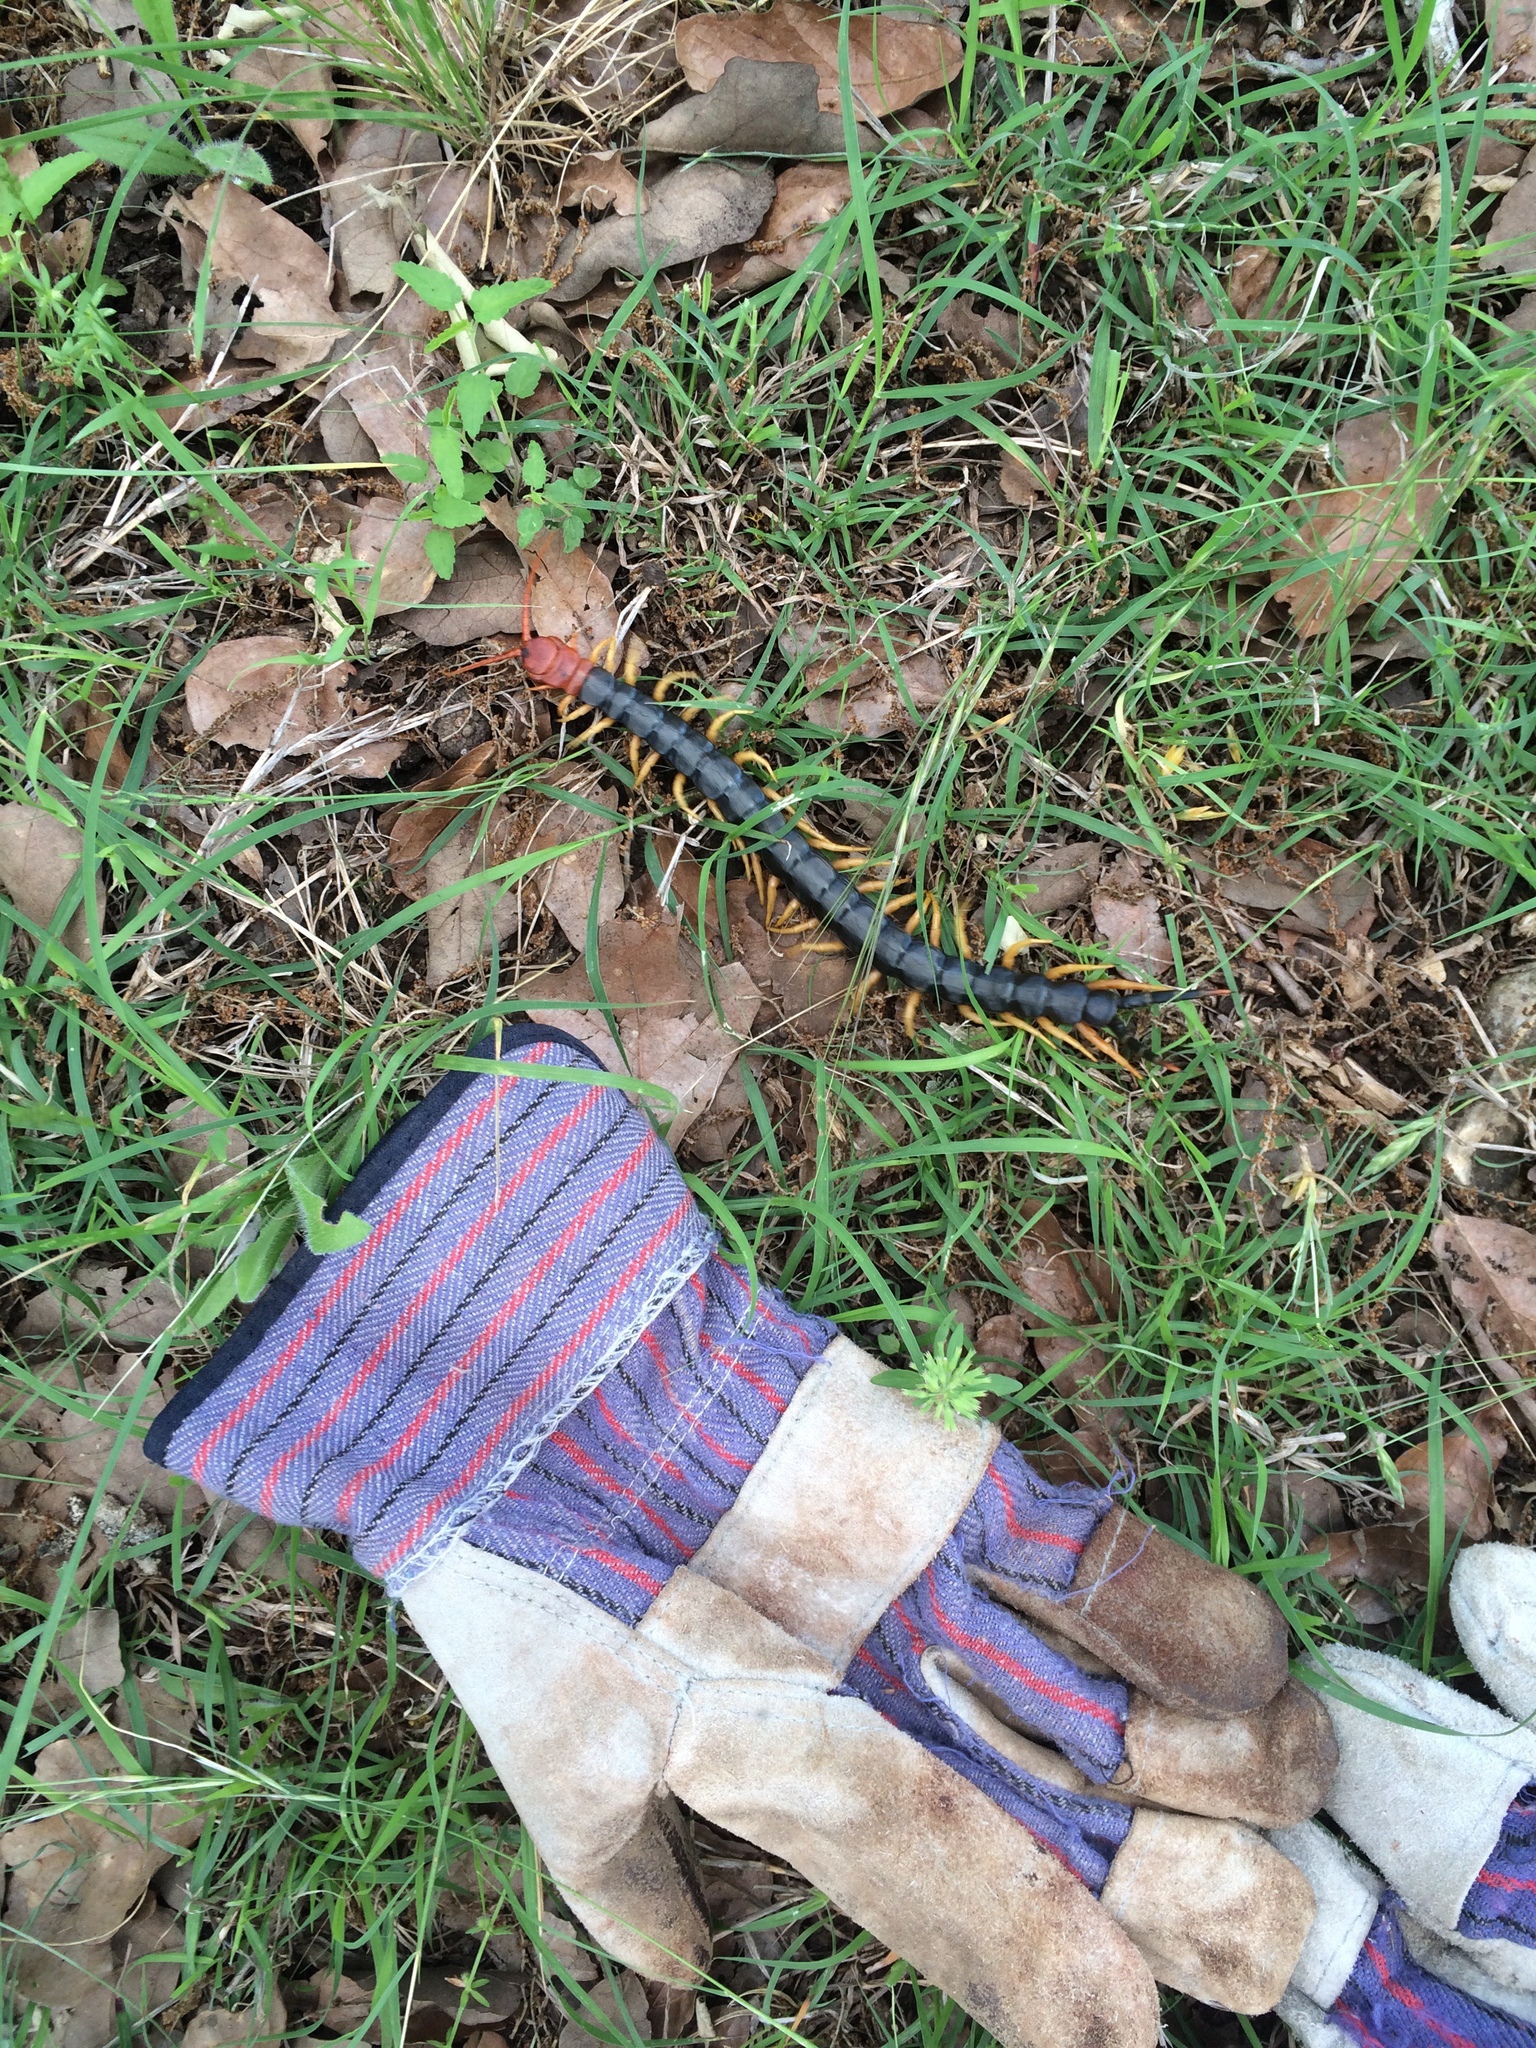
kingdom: Animalia
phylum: Arthropoda
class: Chilopoda
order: Scolopendromorpha
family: Scolopendridae
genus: Scolopendra
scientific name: Scolopendra heros
